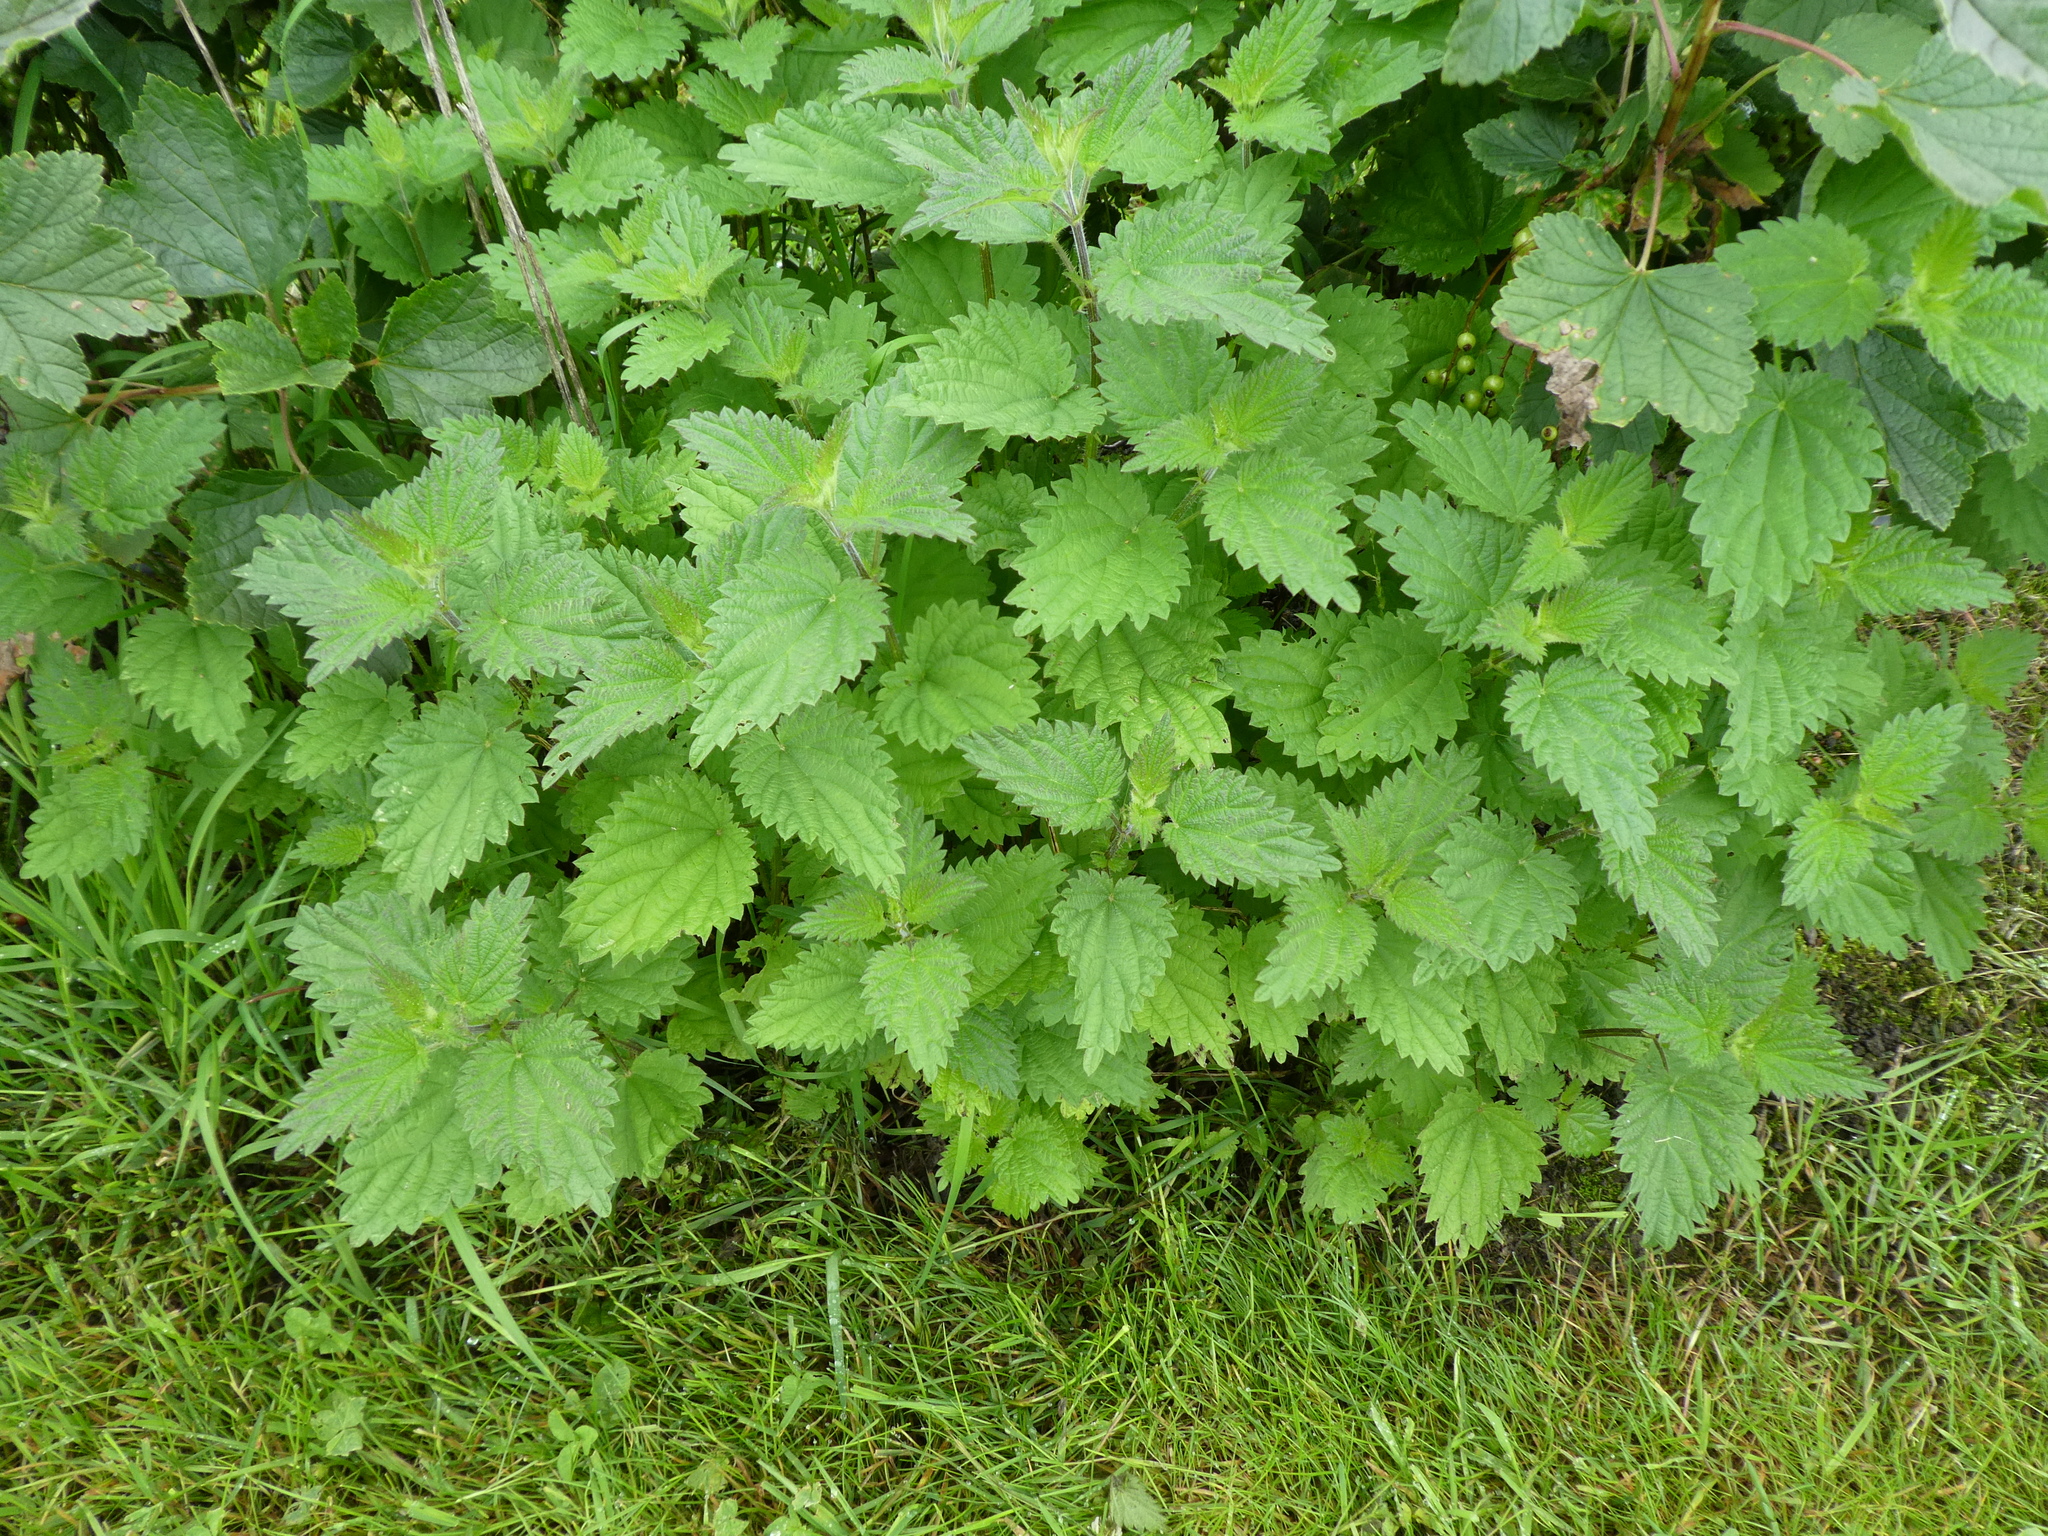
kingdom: Plantae
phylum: Tracheophyta
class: Magnoliopsida
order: Rosales
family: Urticaceae
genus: Urtica
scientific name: Urtica dioica
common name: Common nettle
